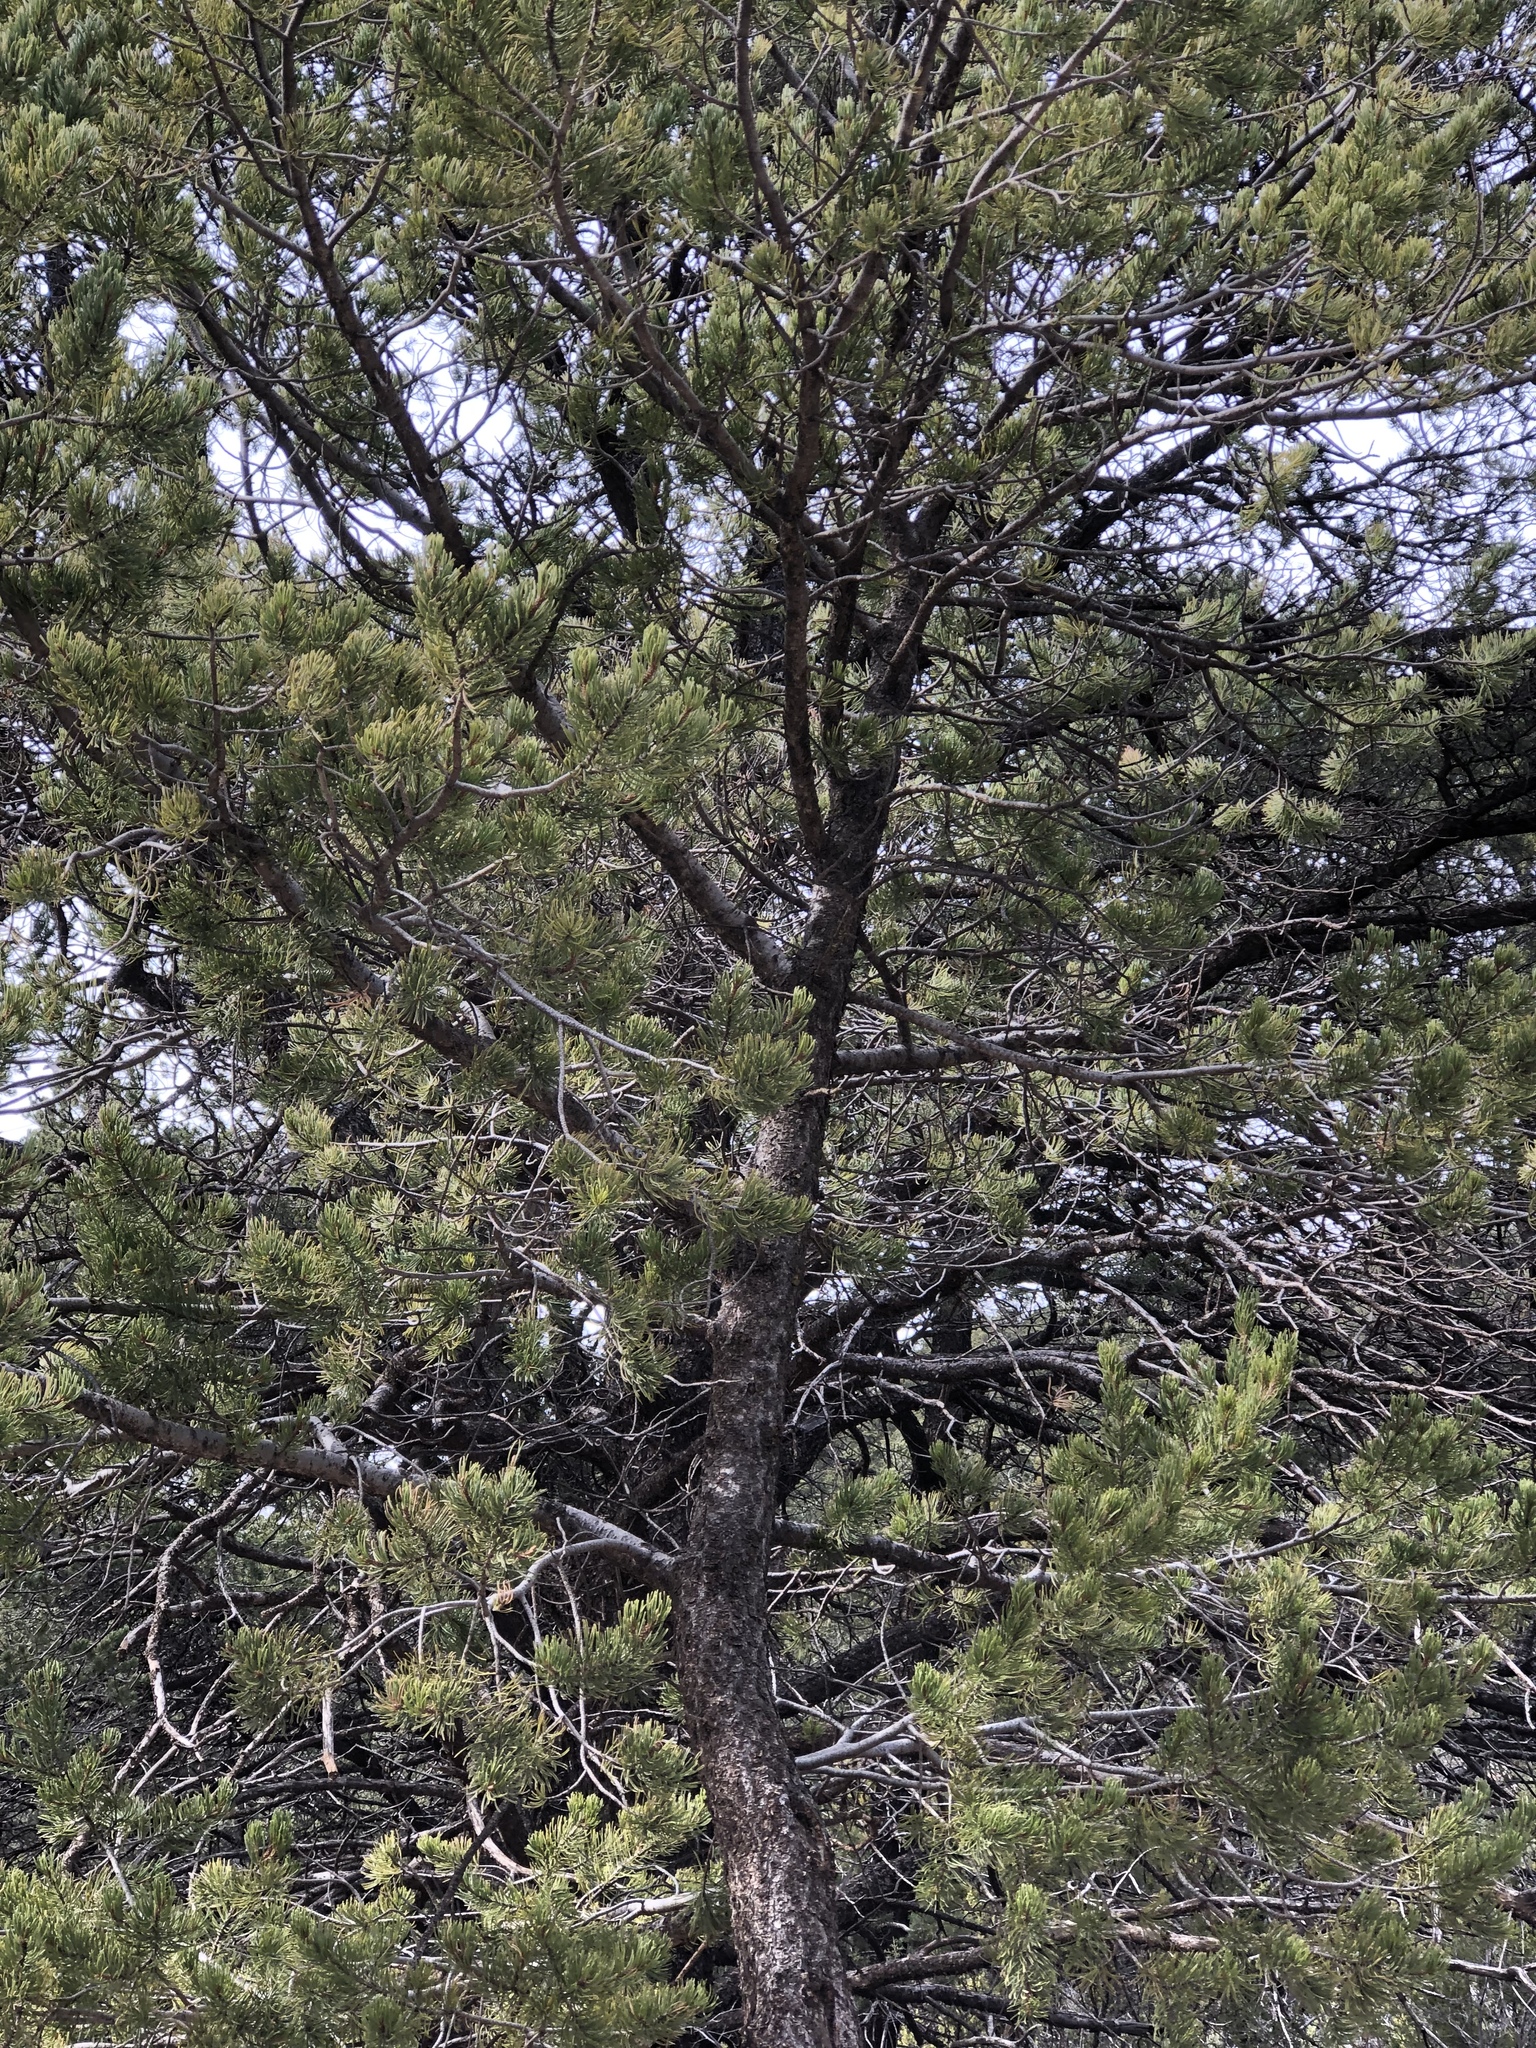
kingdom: Plantae
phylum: Tracheophyta
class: Pinopsida
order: Pinales
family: Pinaceae
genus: Pinus
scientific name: Pinus edulis
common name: Colorado pinyon
